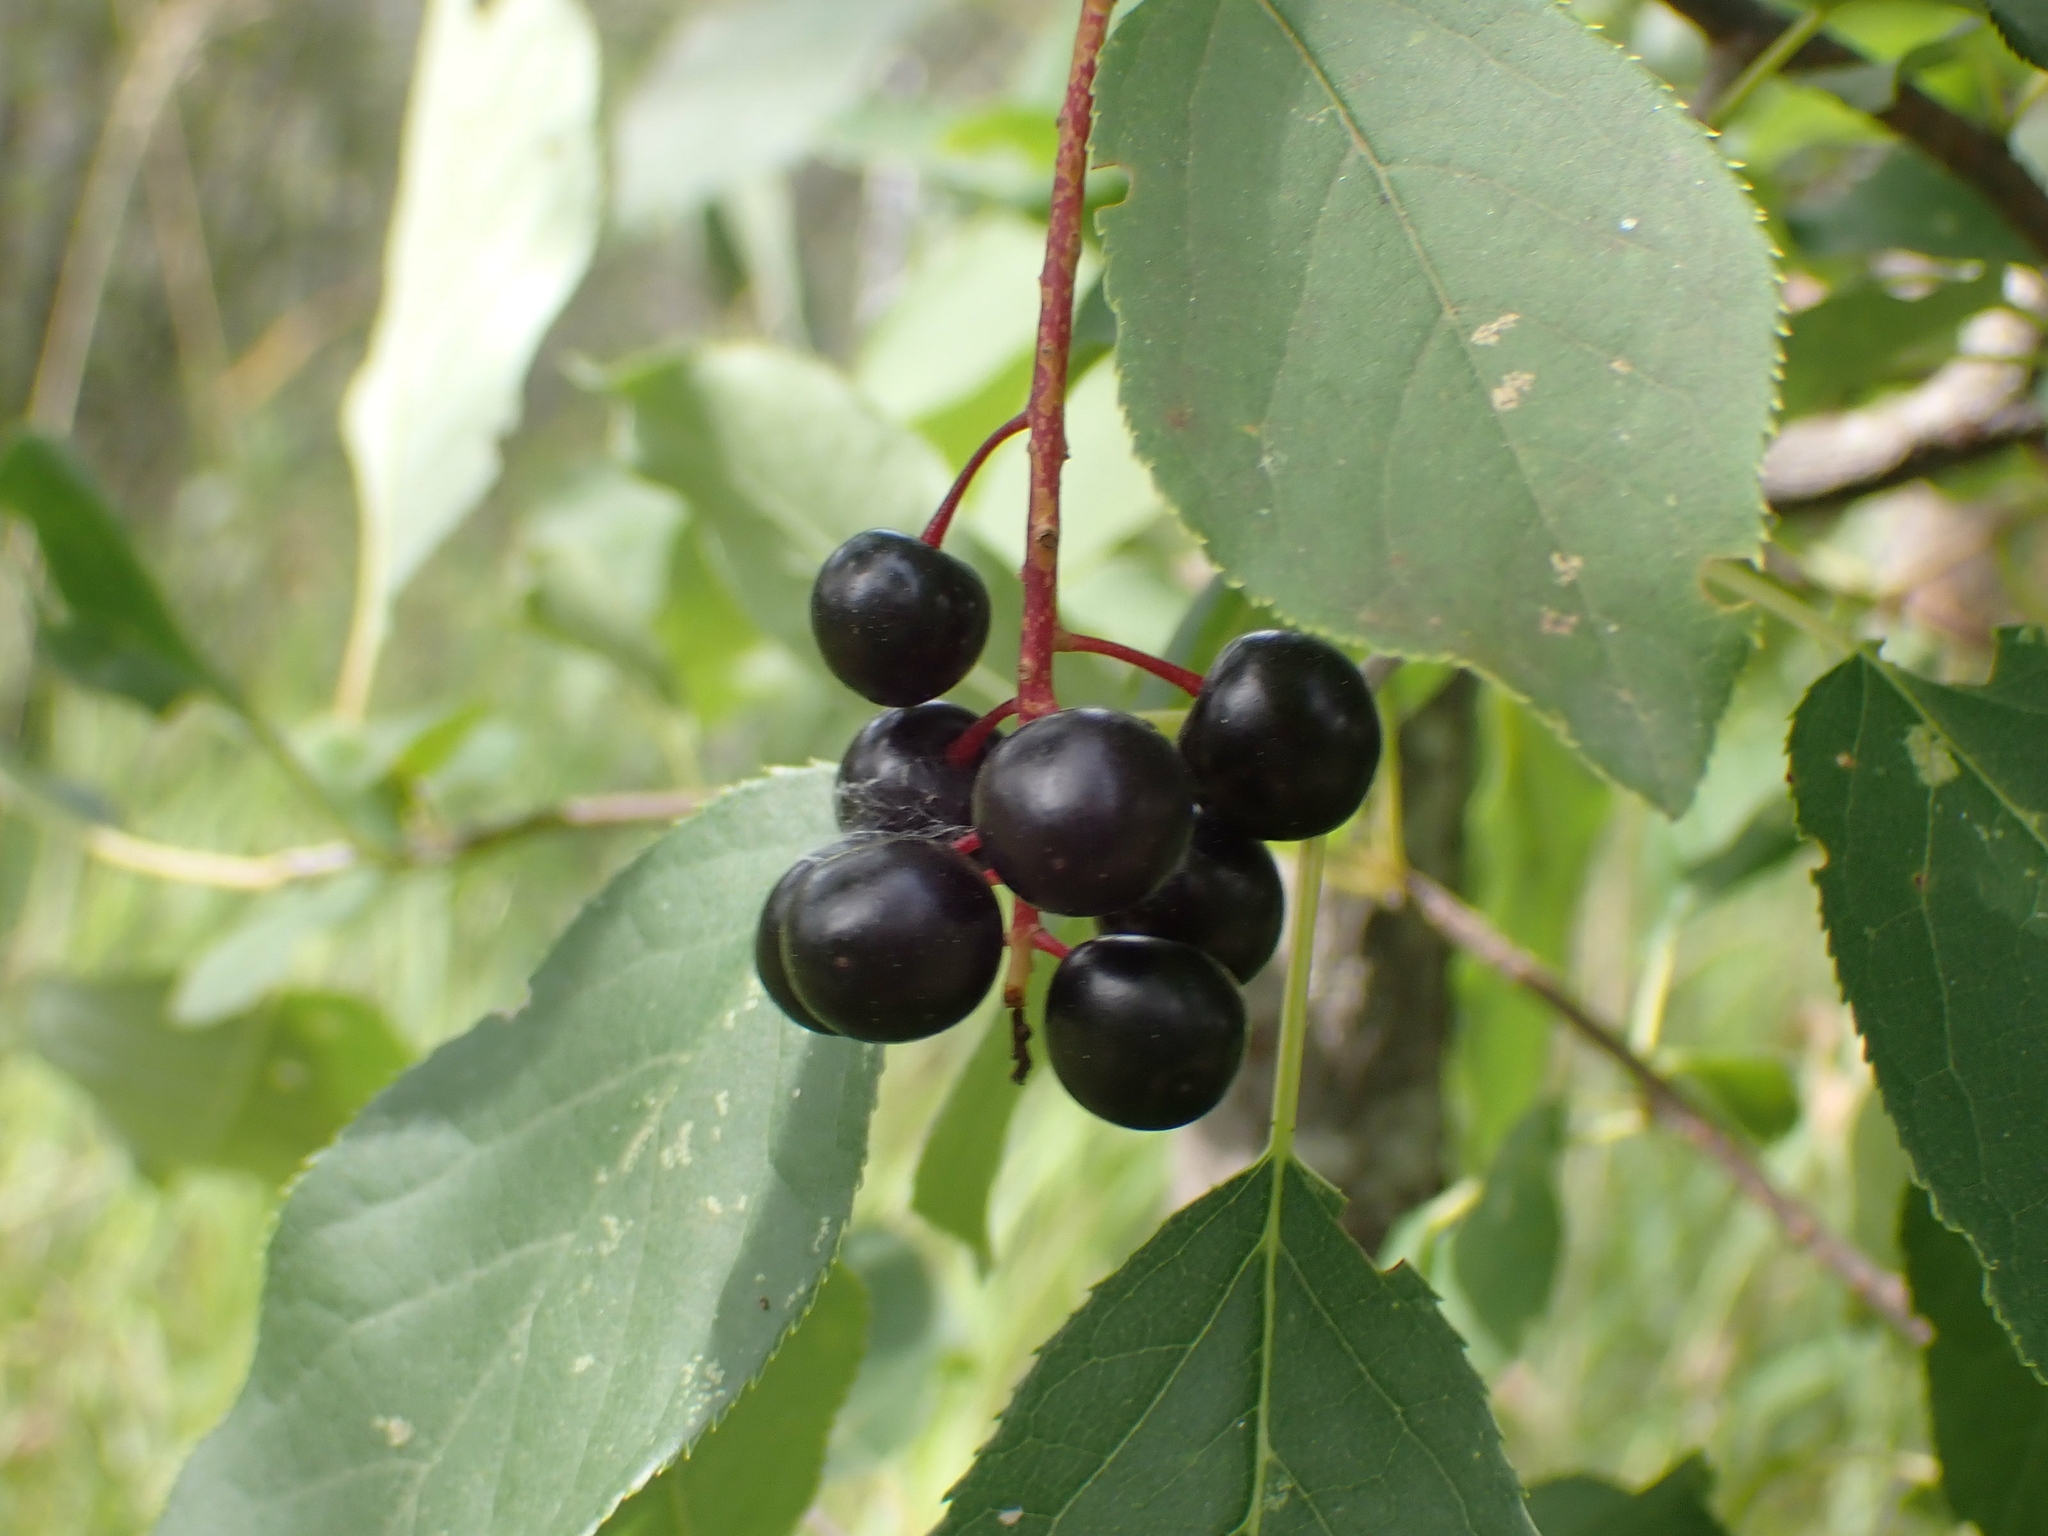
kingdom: Plantae
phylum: Tracheophyta
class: Magnoliopsida
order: Rosales
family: Rosaceae
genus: Prunus
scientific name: Prunus virginiana
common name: Chokecherry
